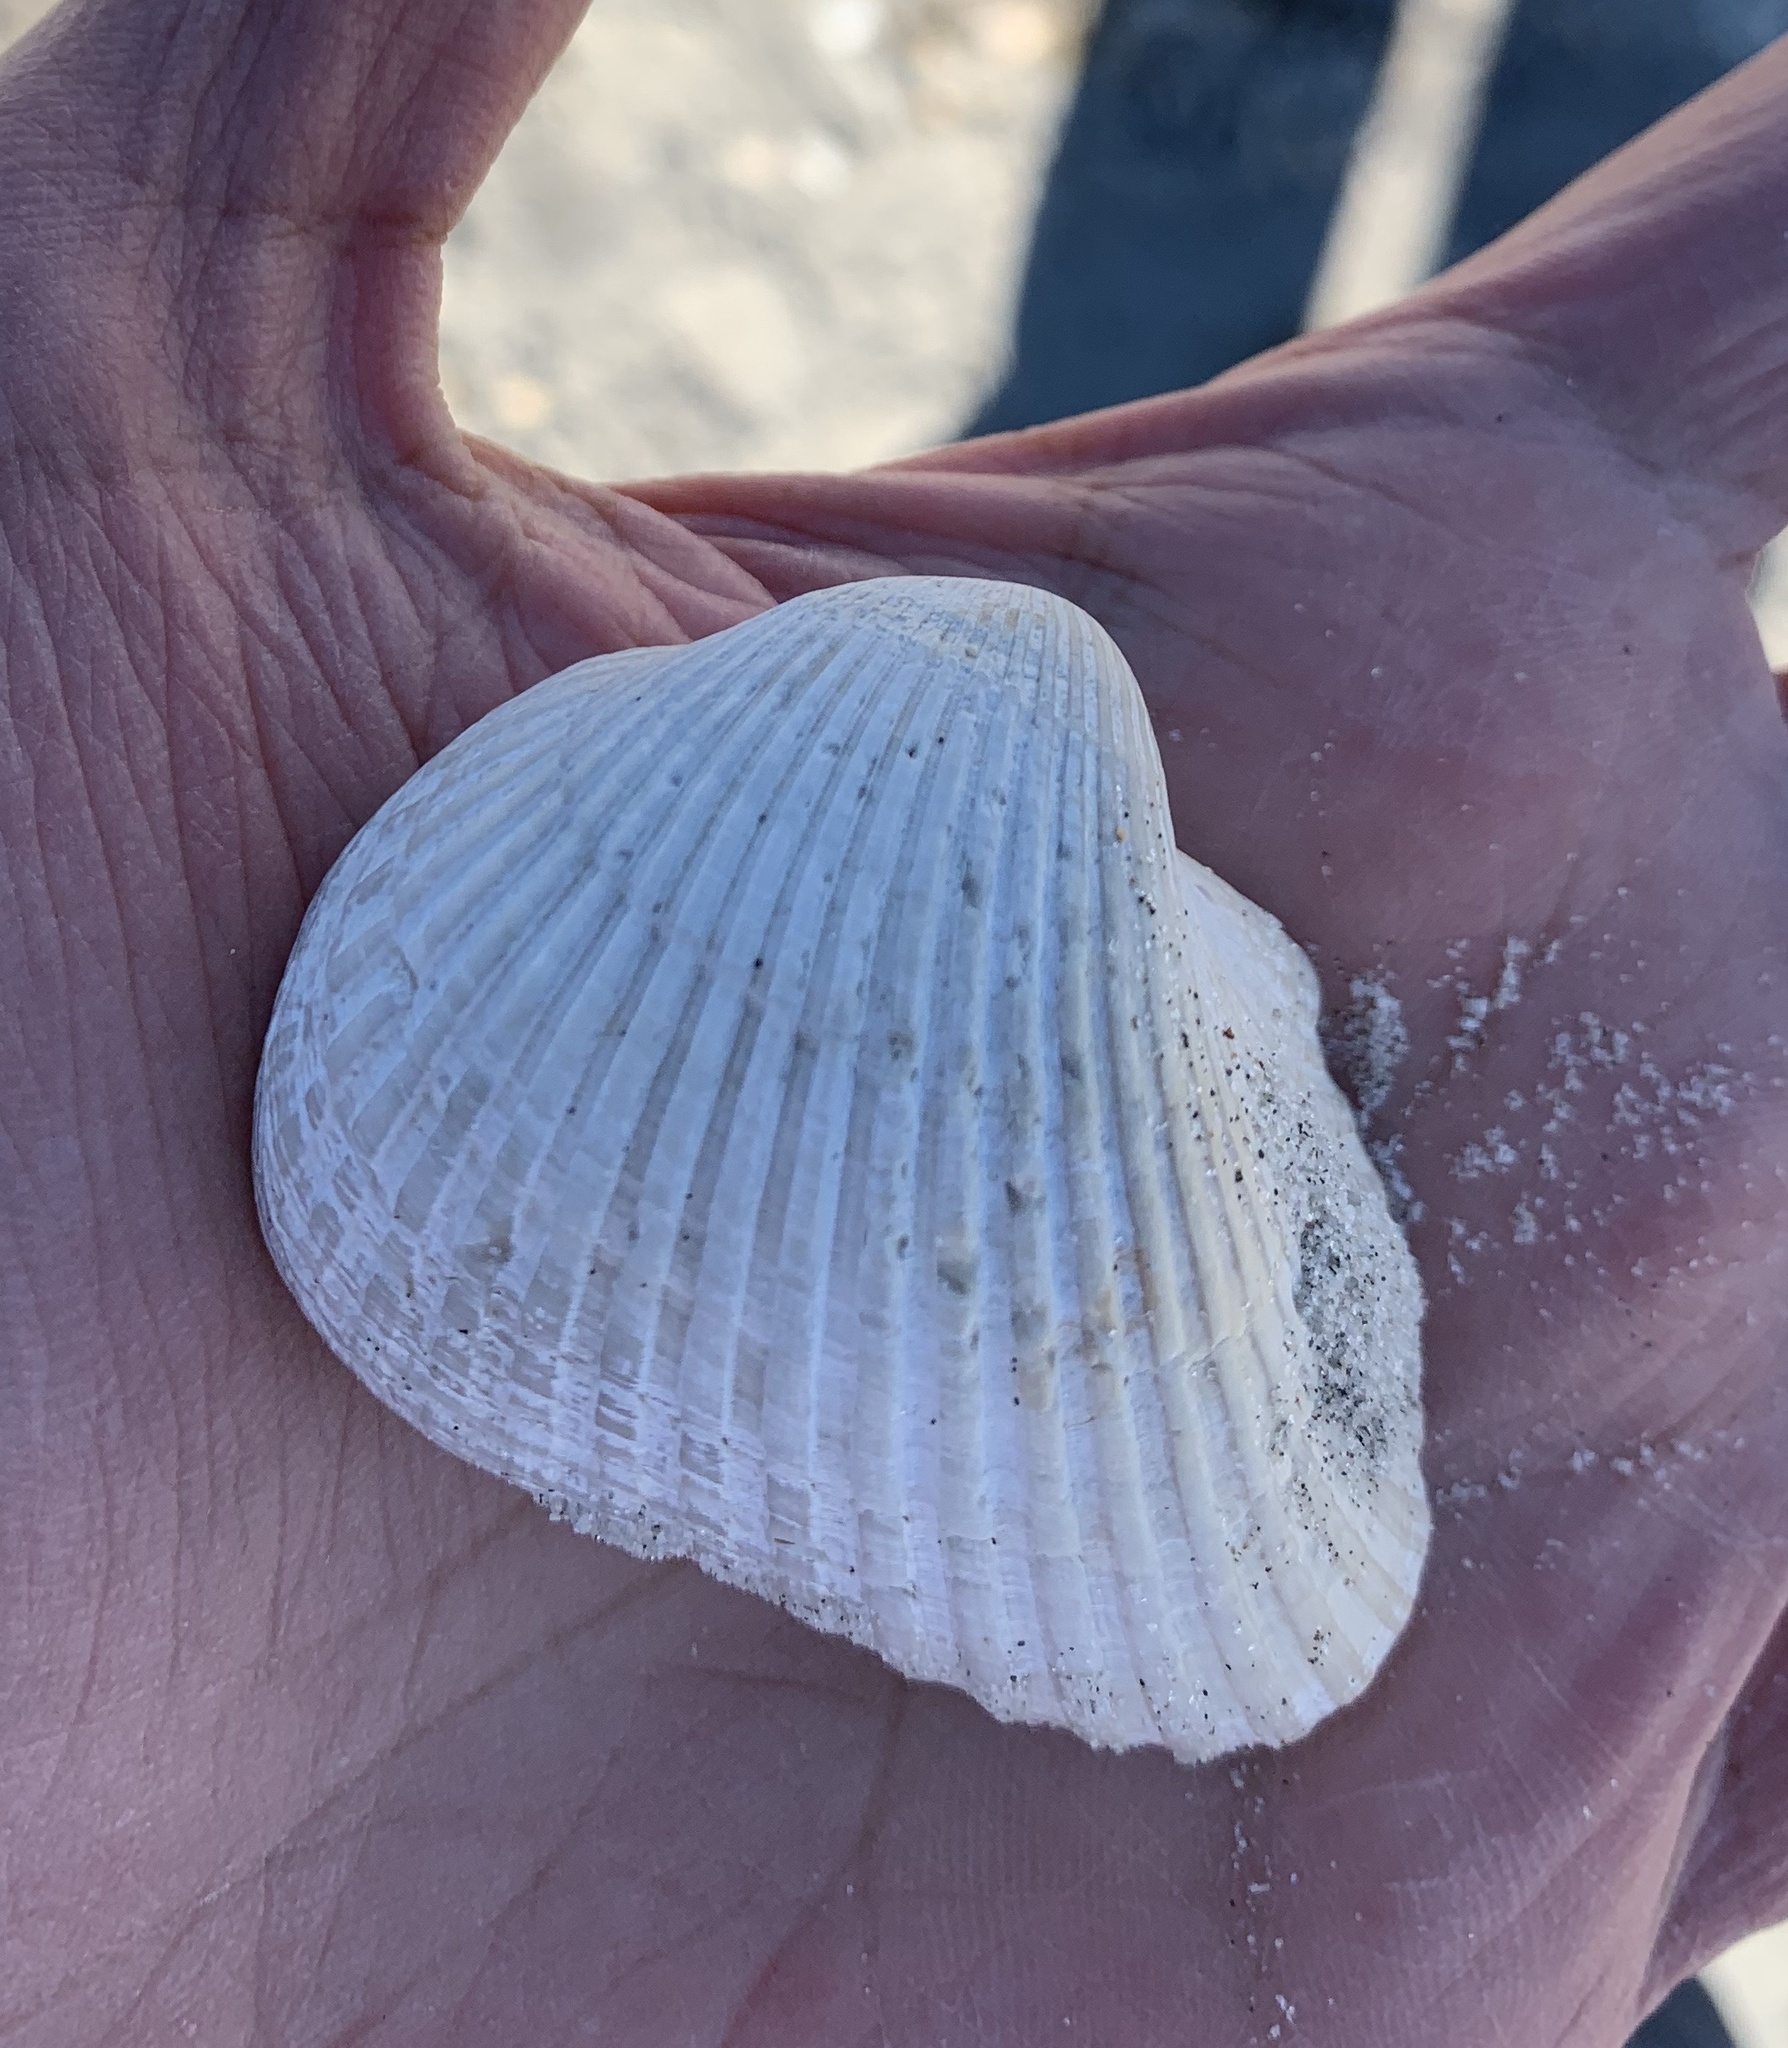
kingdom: Animalia
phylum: Mollusca
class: Bivalvia
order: Arcida
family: Noetiidae
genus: Noetia
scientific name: Noetia ponderosa
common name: Ponderous ark
